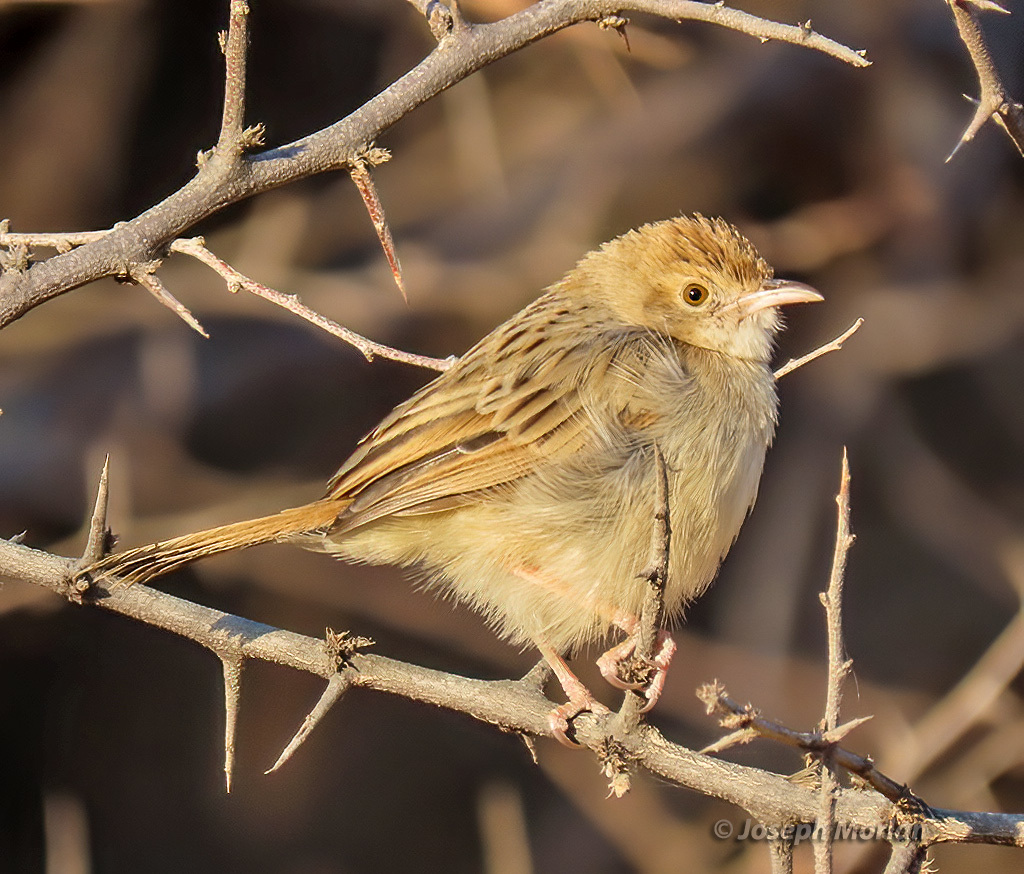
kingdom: Animalia
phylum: Chordata
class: Aves
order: Passeriformes
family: Cisticolidae
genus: Cisticola
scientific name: Cisticola chiniana
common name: Rattling cisticola
